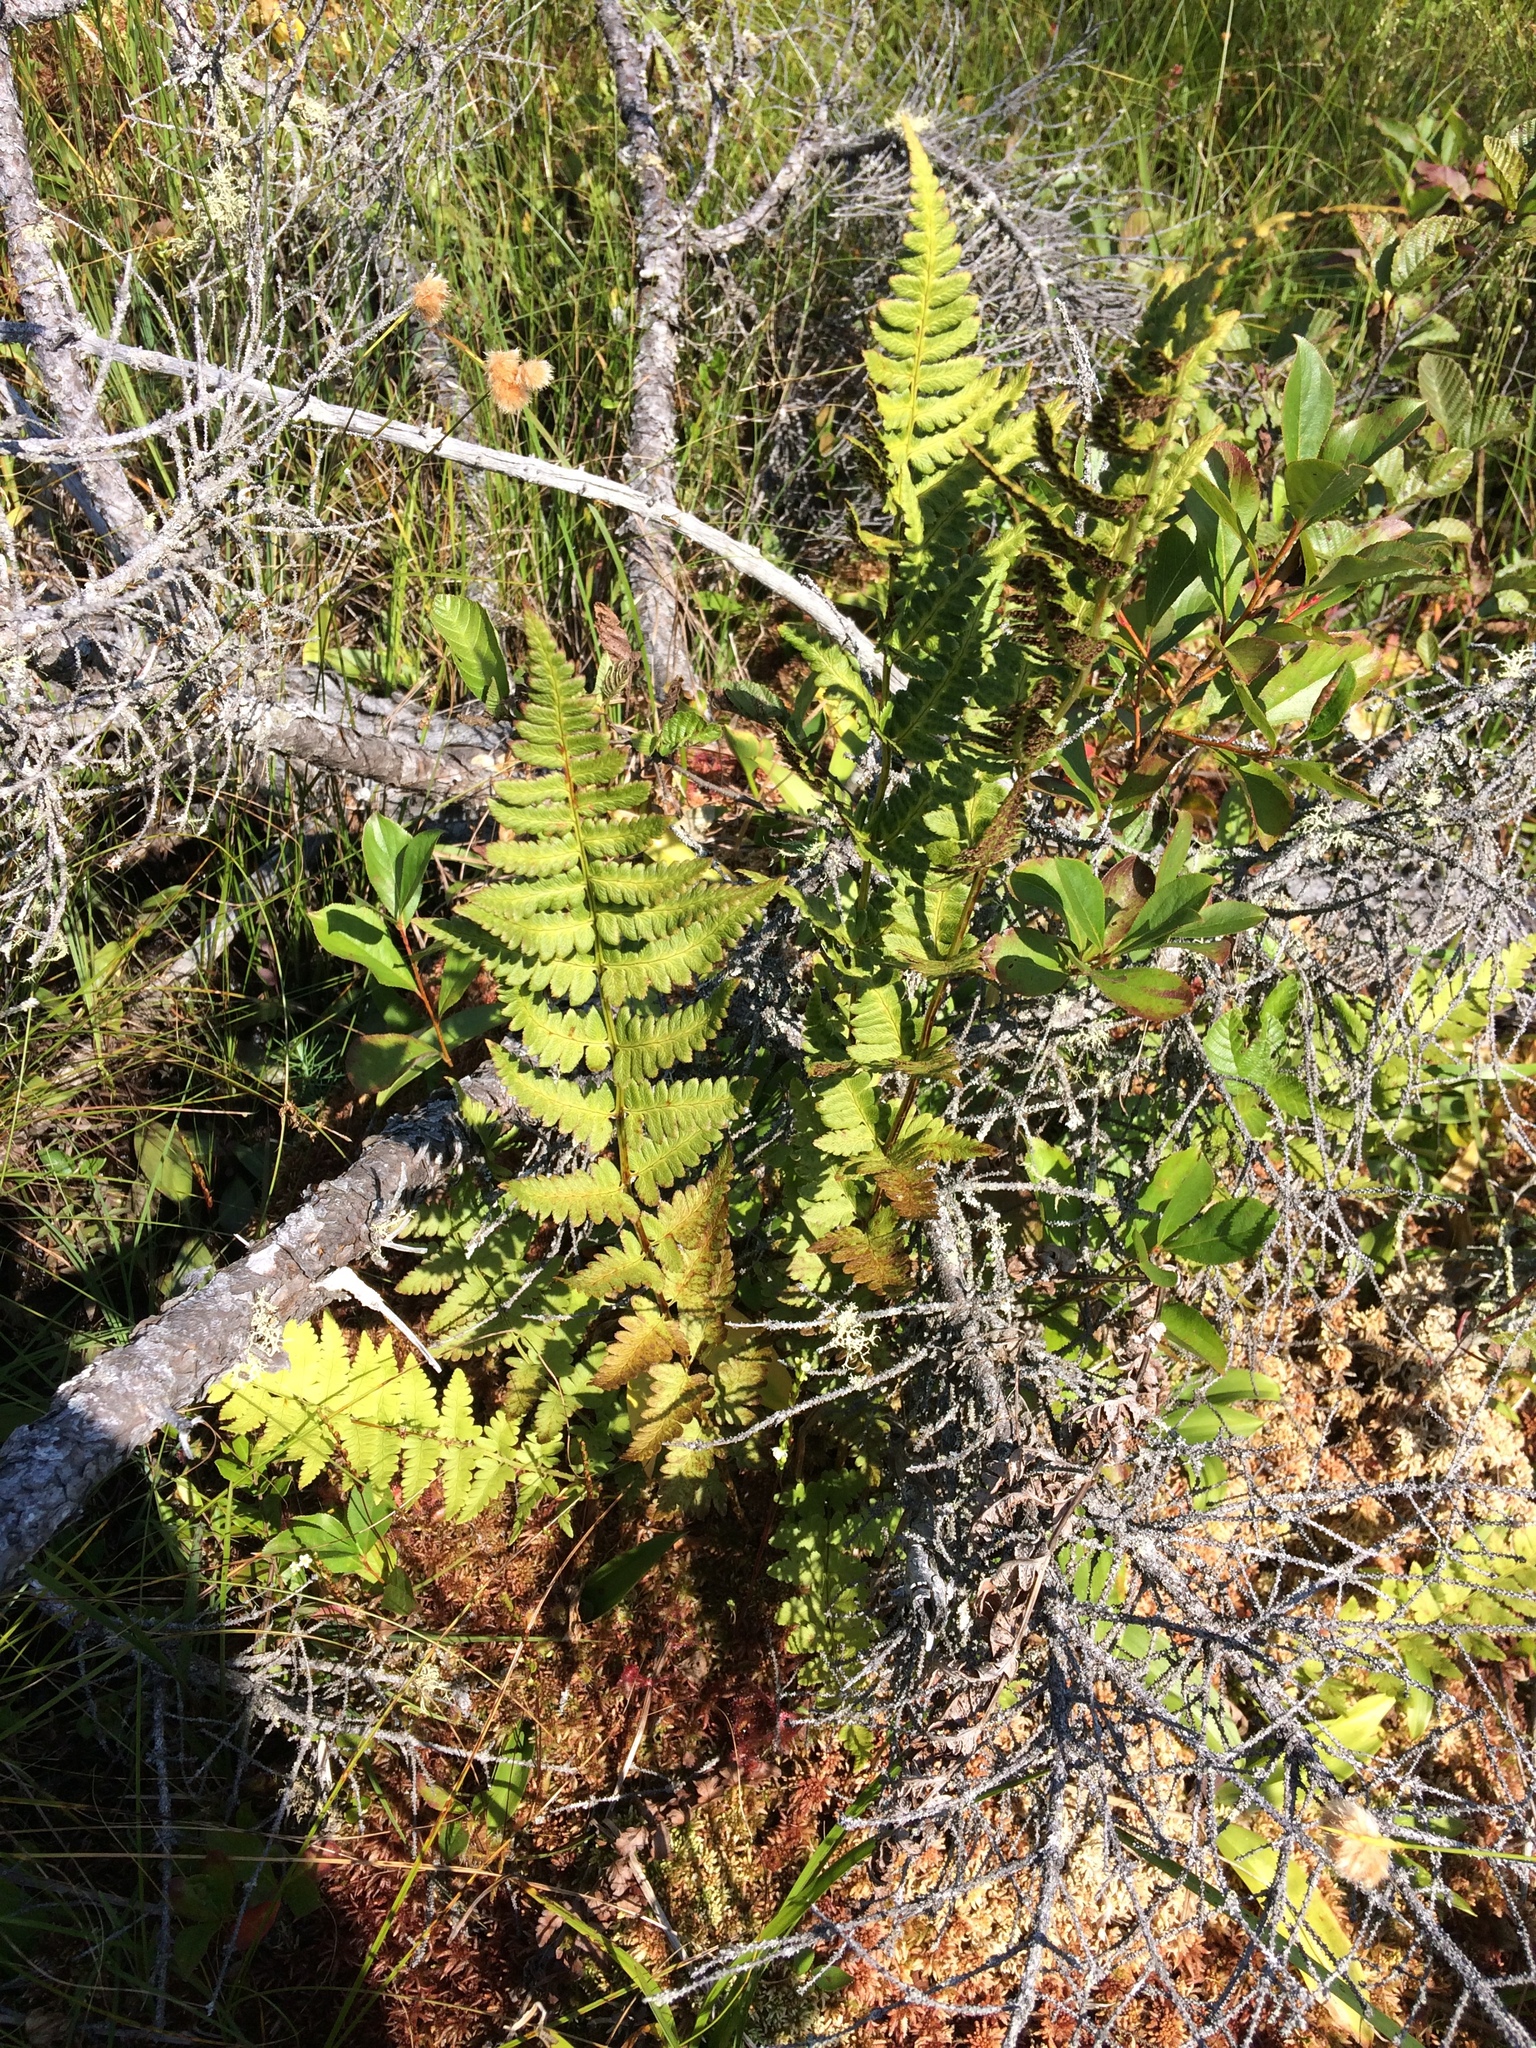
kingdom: Plantae
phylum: Tracheophyta
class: Polypodiopsida
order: Polypodiales
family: Dryopteridaceae
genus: Dryopteris
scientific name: Dryopteris cristata
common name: Crested wood fern
